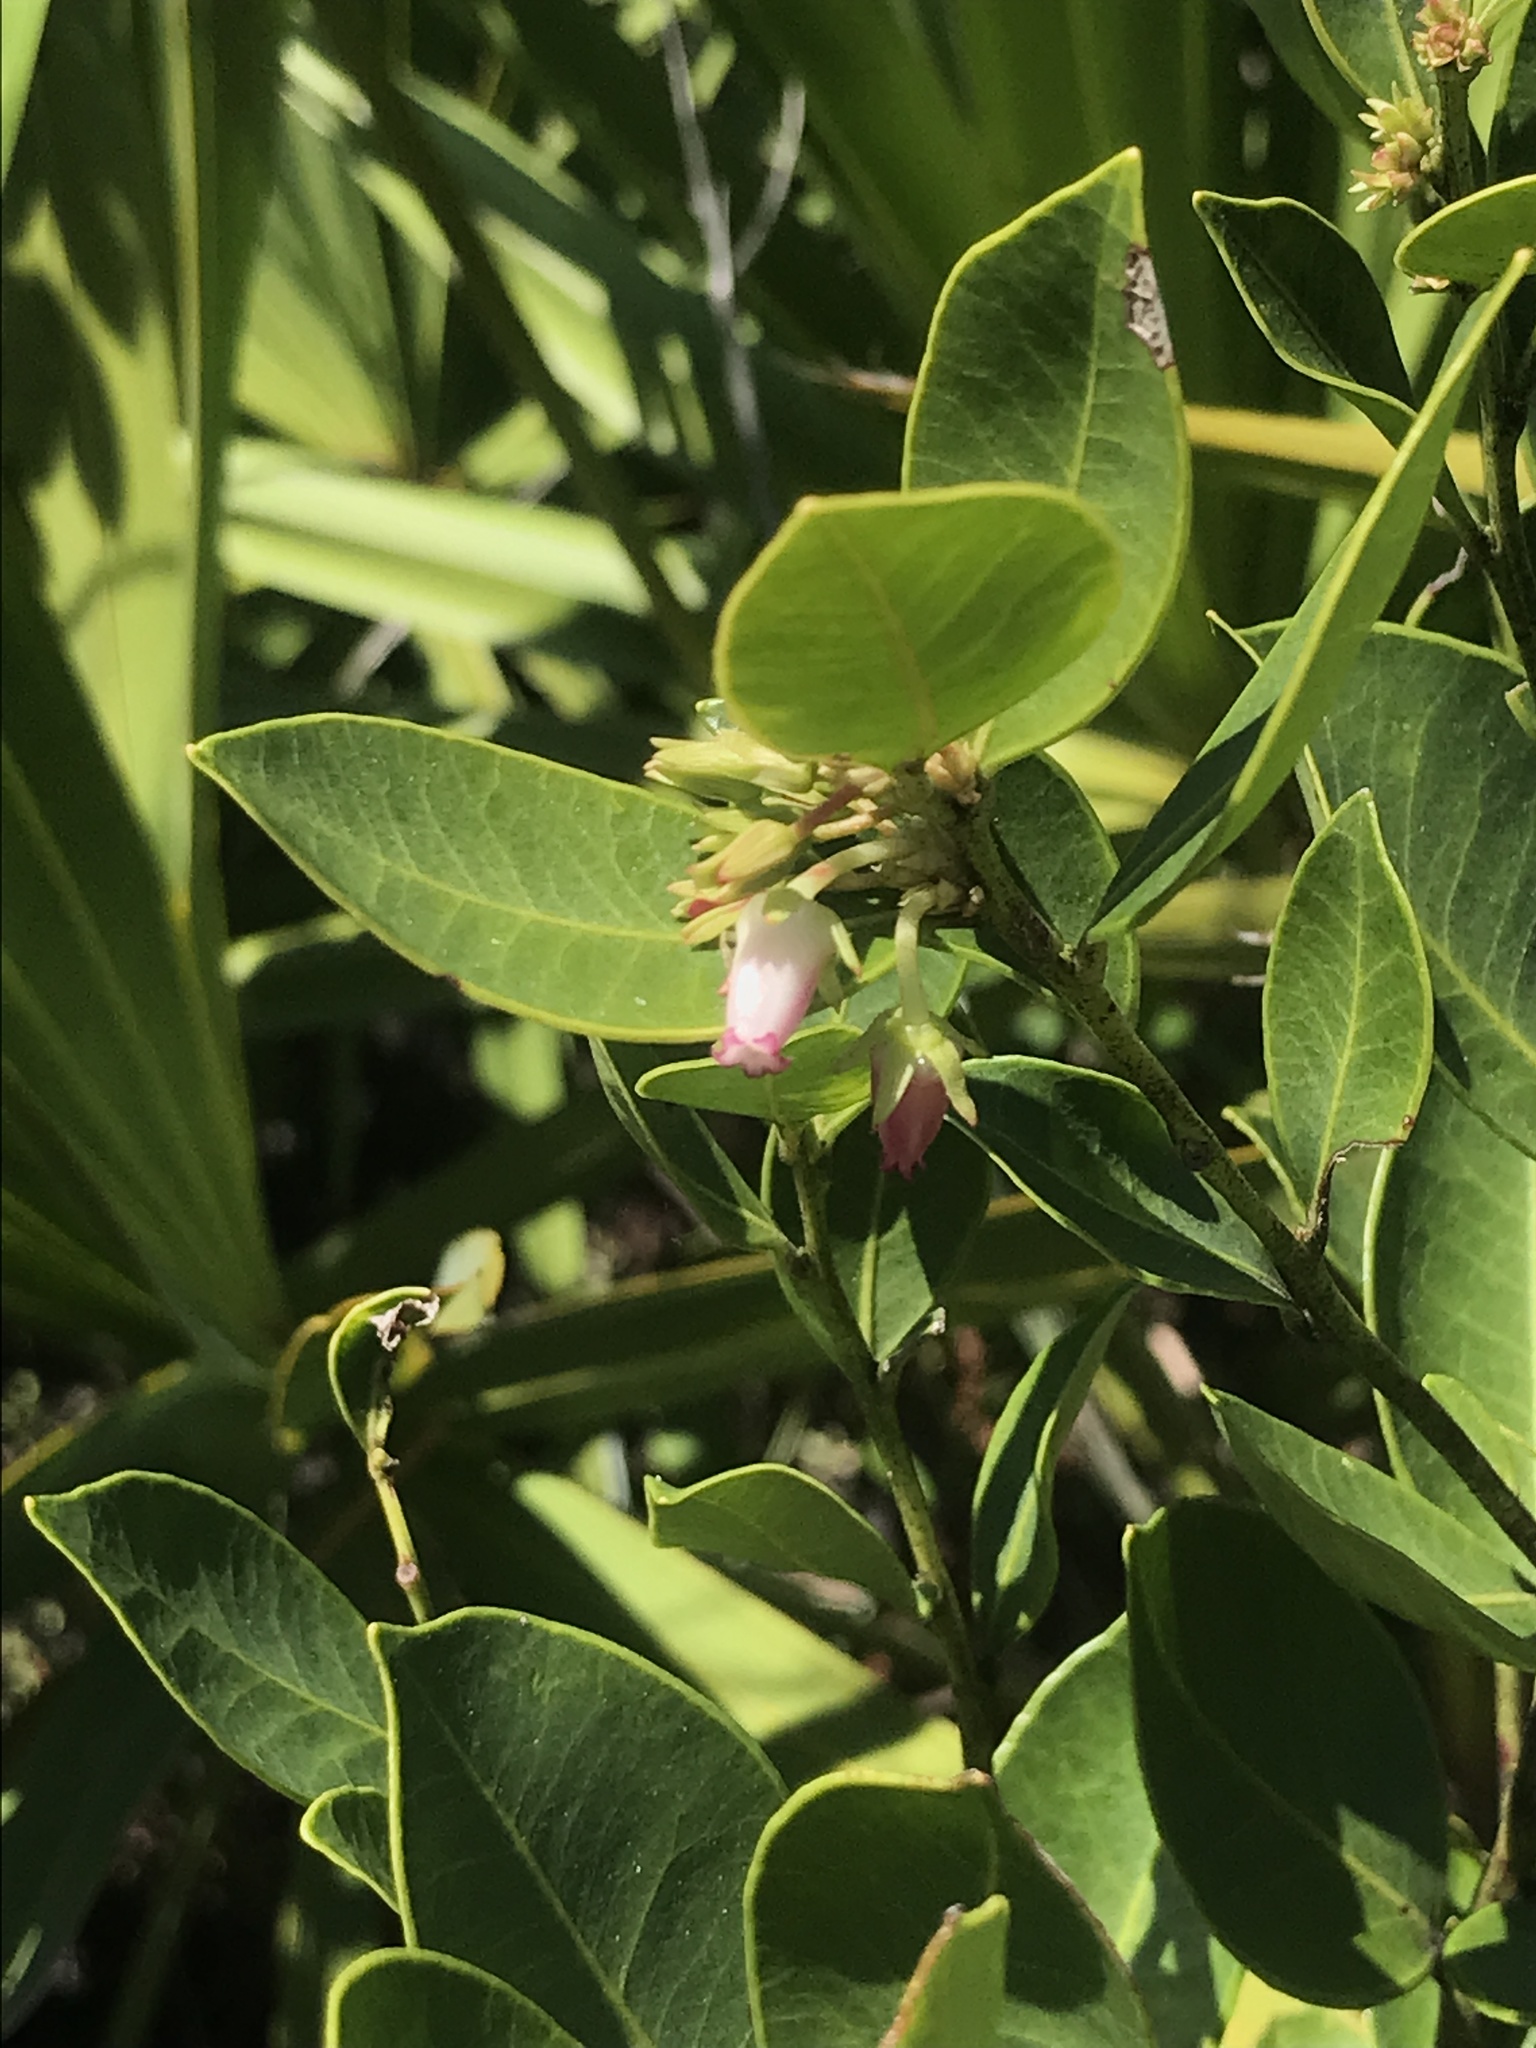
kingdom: Plantae
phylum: Tracheophyta
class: Magnoliopsida
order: Ericales
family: Ericaceae
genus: Lyonia
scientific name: Lyonia lucida
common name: Fetterbush
